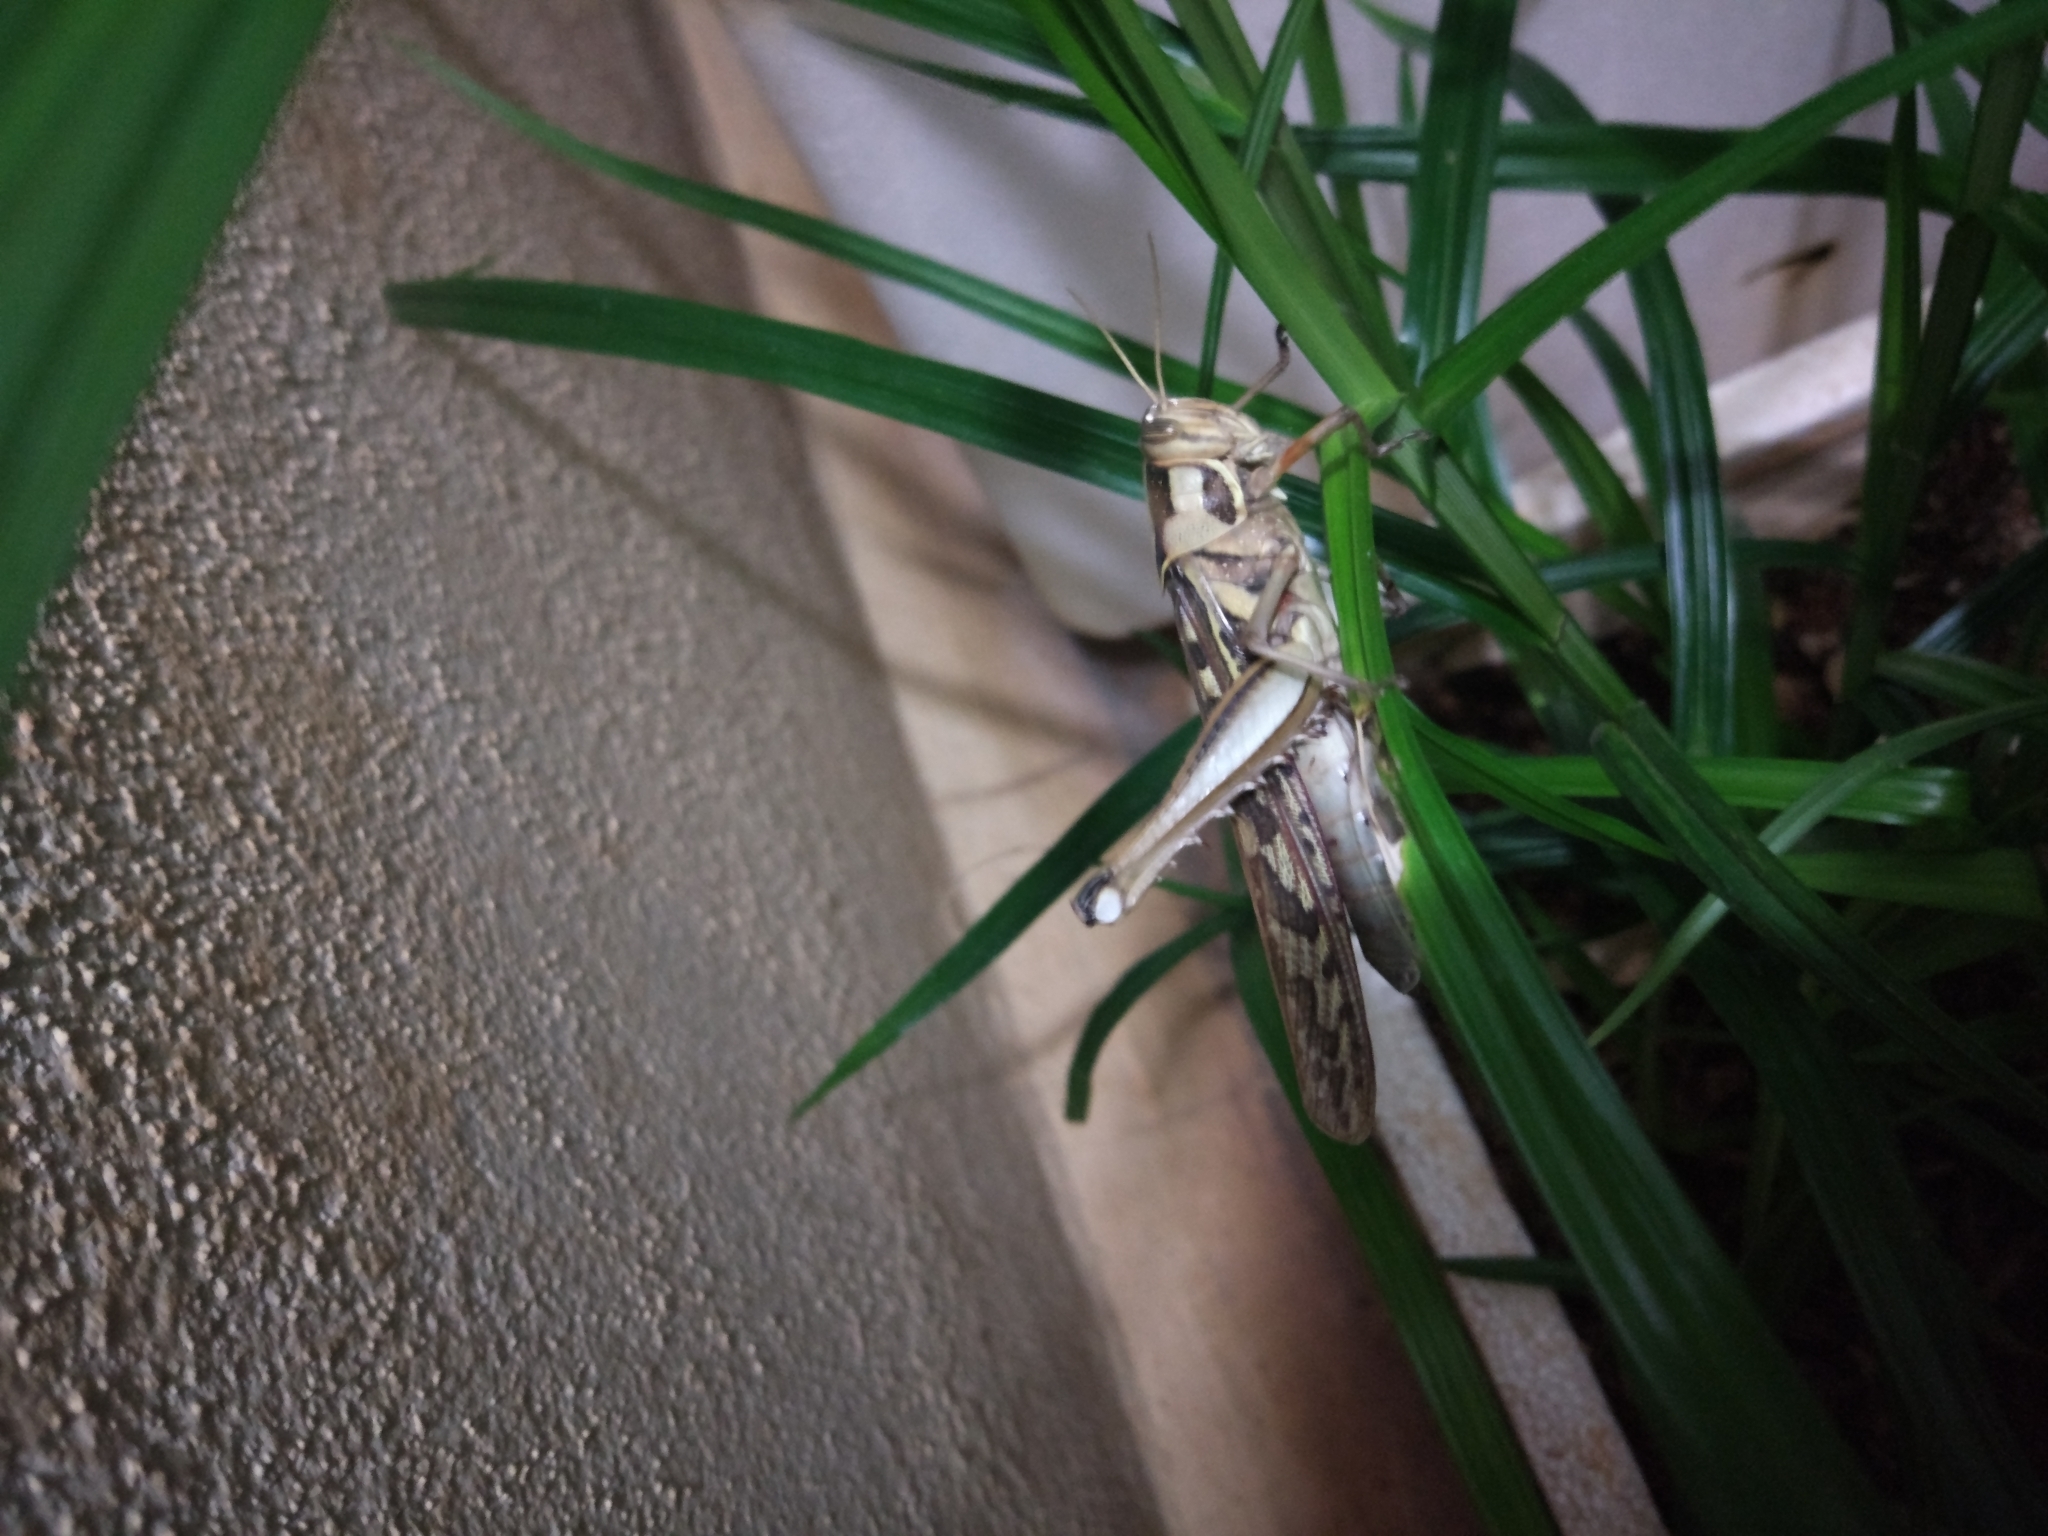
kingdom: Animalia
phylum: Arthropoda
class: Insecta
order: Orthoptera
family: Acrididae
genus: Cyrtacanthacris
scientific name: Cyrtacanthacris tatarica
